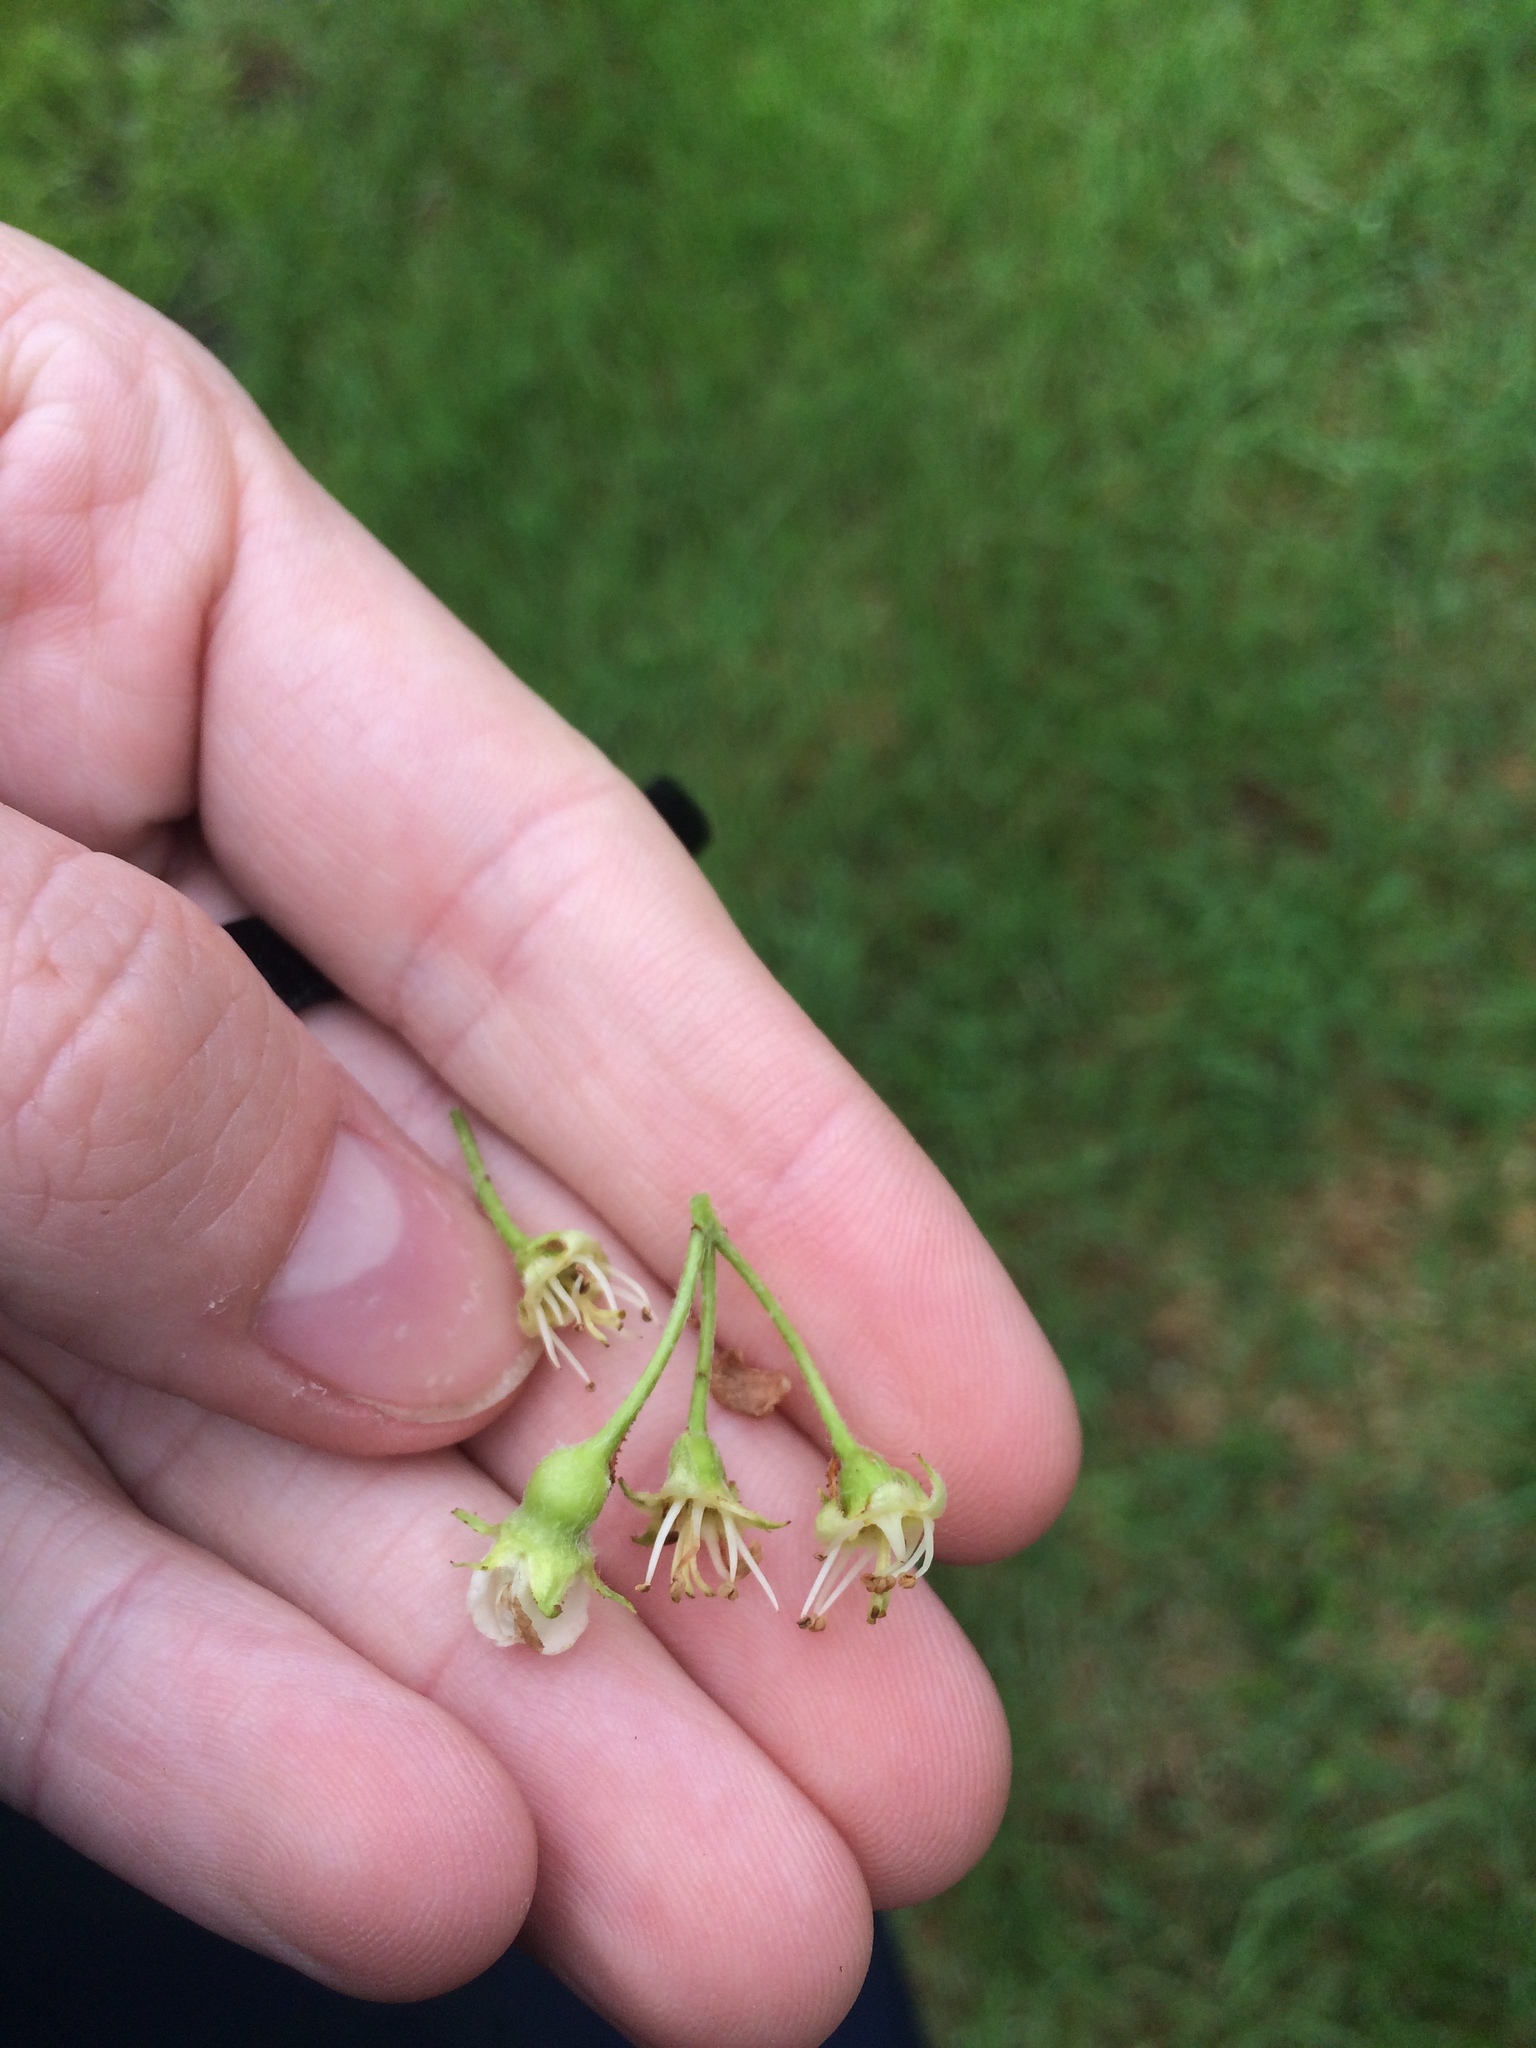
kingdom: Plantae
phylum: Tracheophyta
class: Magnoliopsida
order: Rosales
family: Rosaceae
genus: Crataegus
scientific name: Crataegus chrysocarpa
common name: Fire-berry hawthorn
